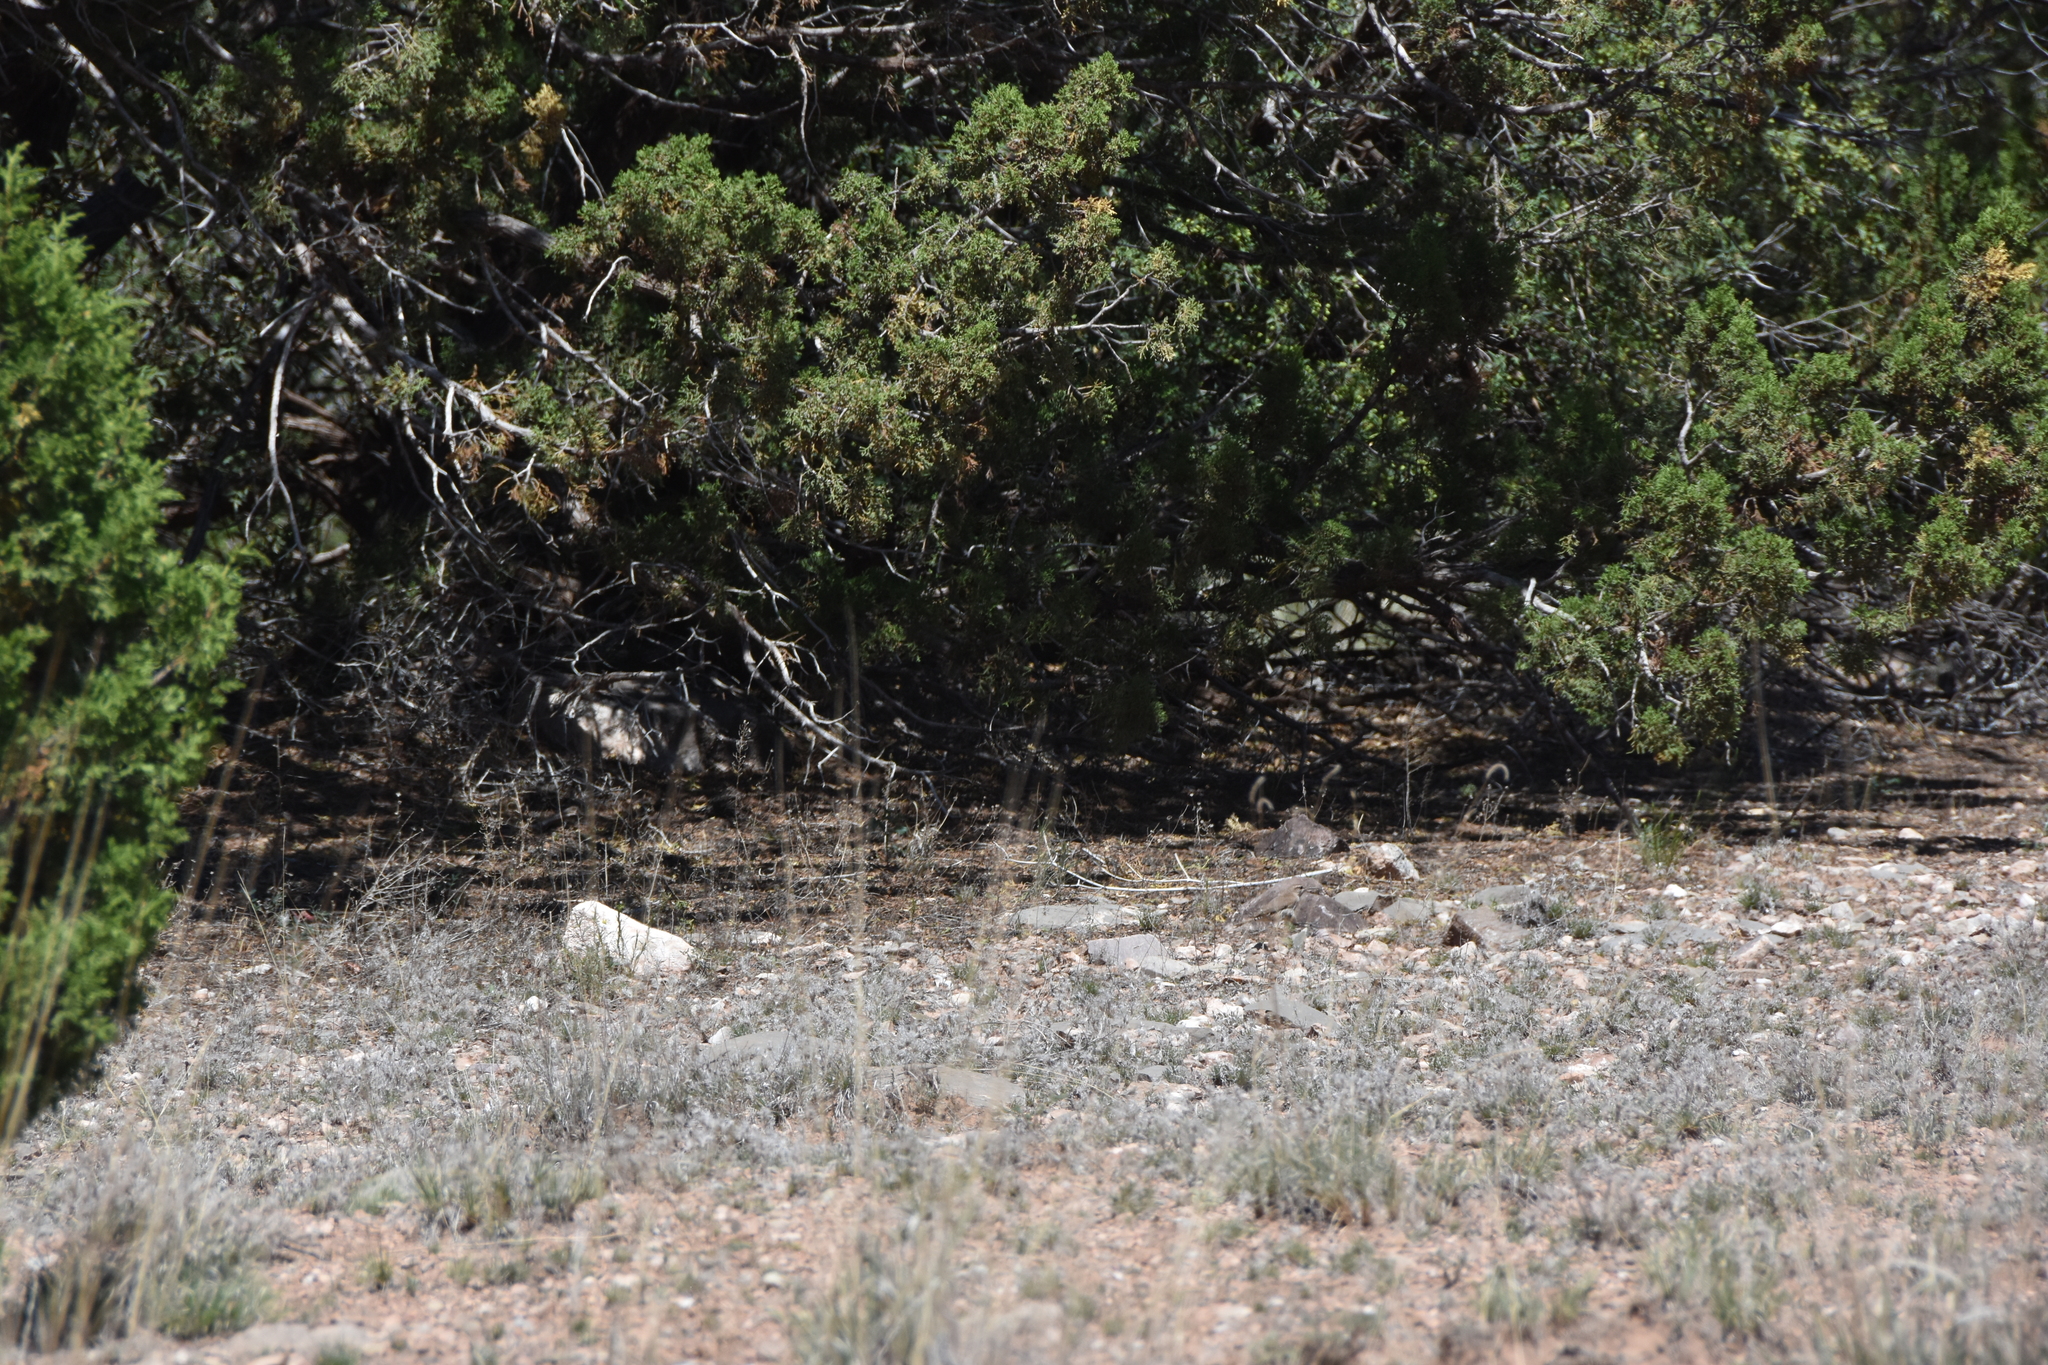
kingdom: Animalia
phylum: Chordata
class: Aves
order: Passeriformes
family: Troglodytidae
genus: Salpinctes
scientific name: Salpinctes obsoletus
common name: Rock wren
